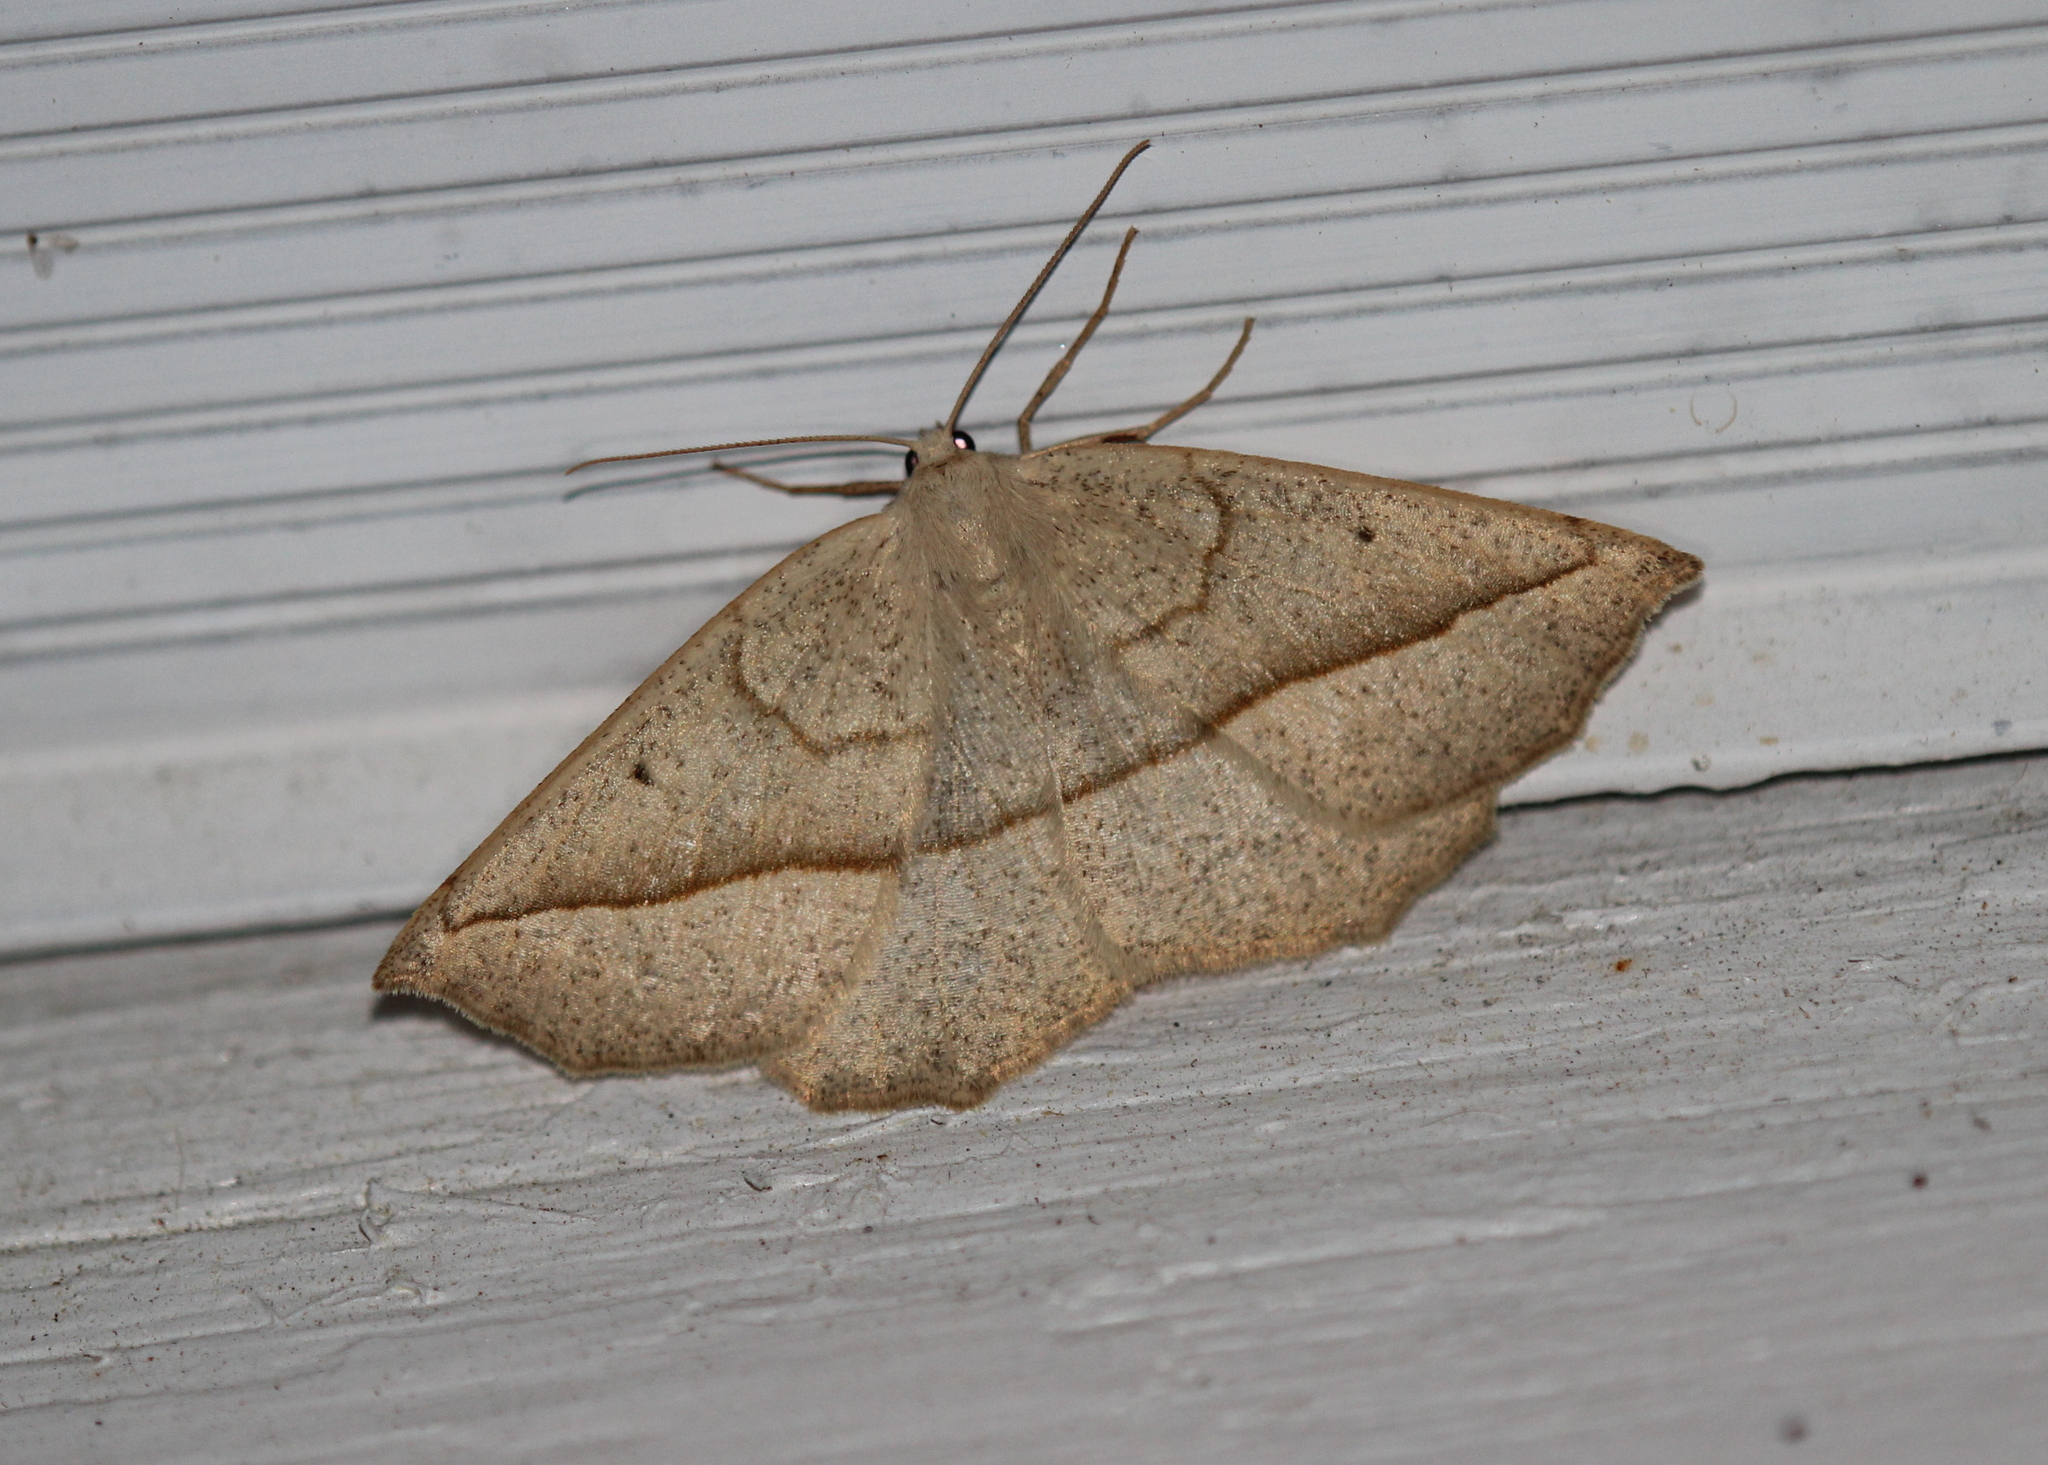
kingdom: Animalia
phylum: Arthropoda
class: Insecta
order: Lepidoptera
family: Geometridae
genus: Eusarca
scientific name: Eusarca confusaria
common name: Confused eusarca
